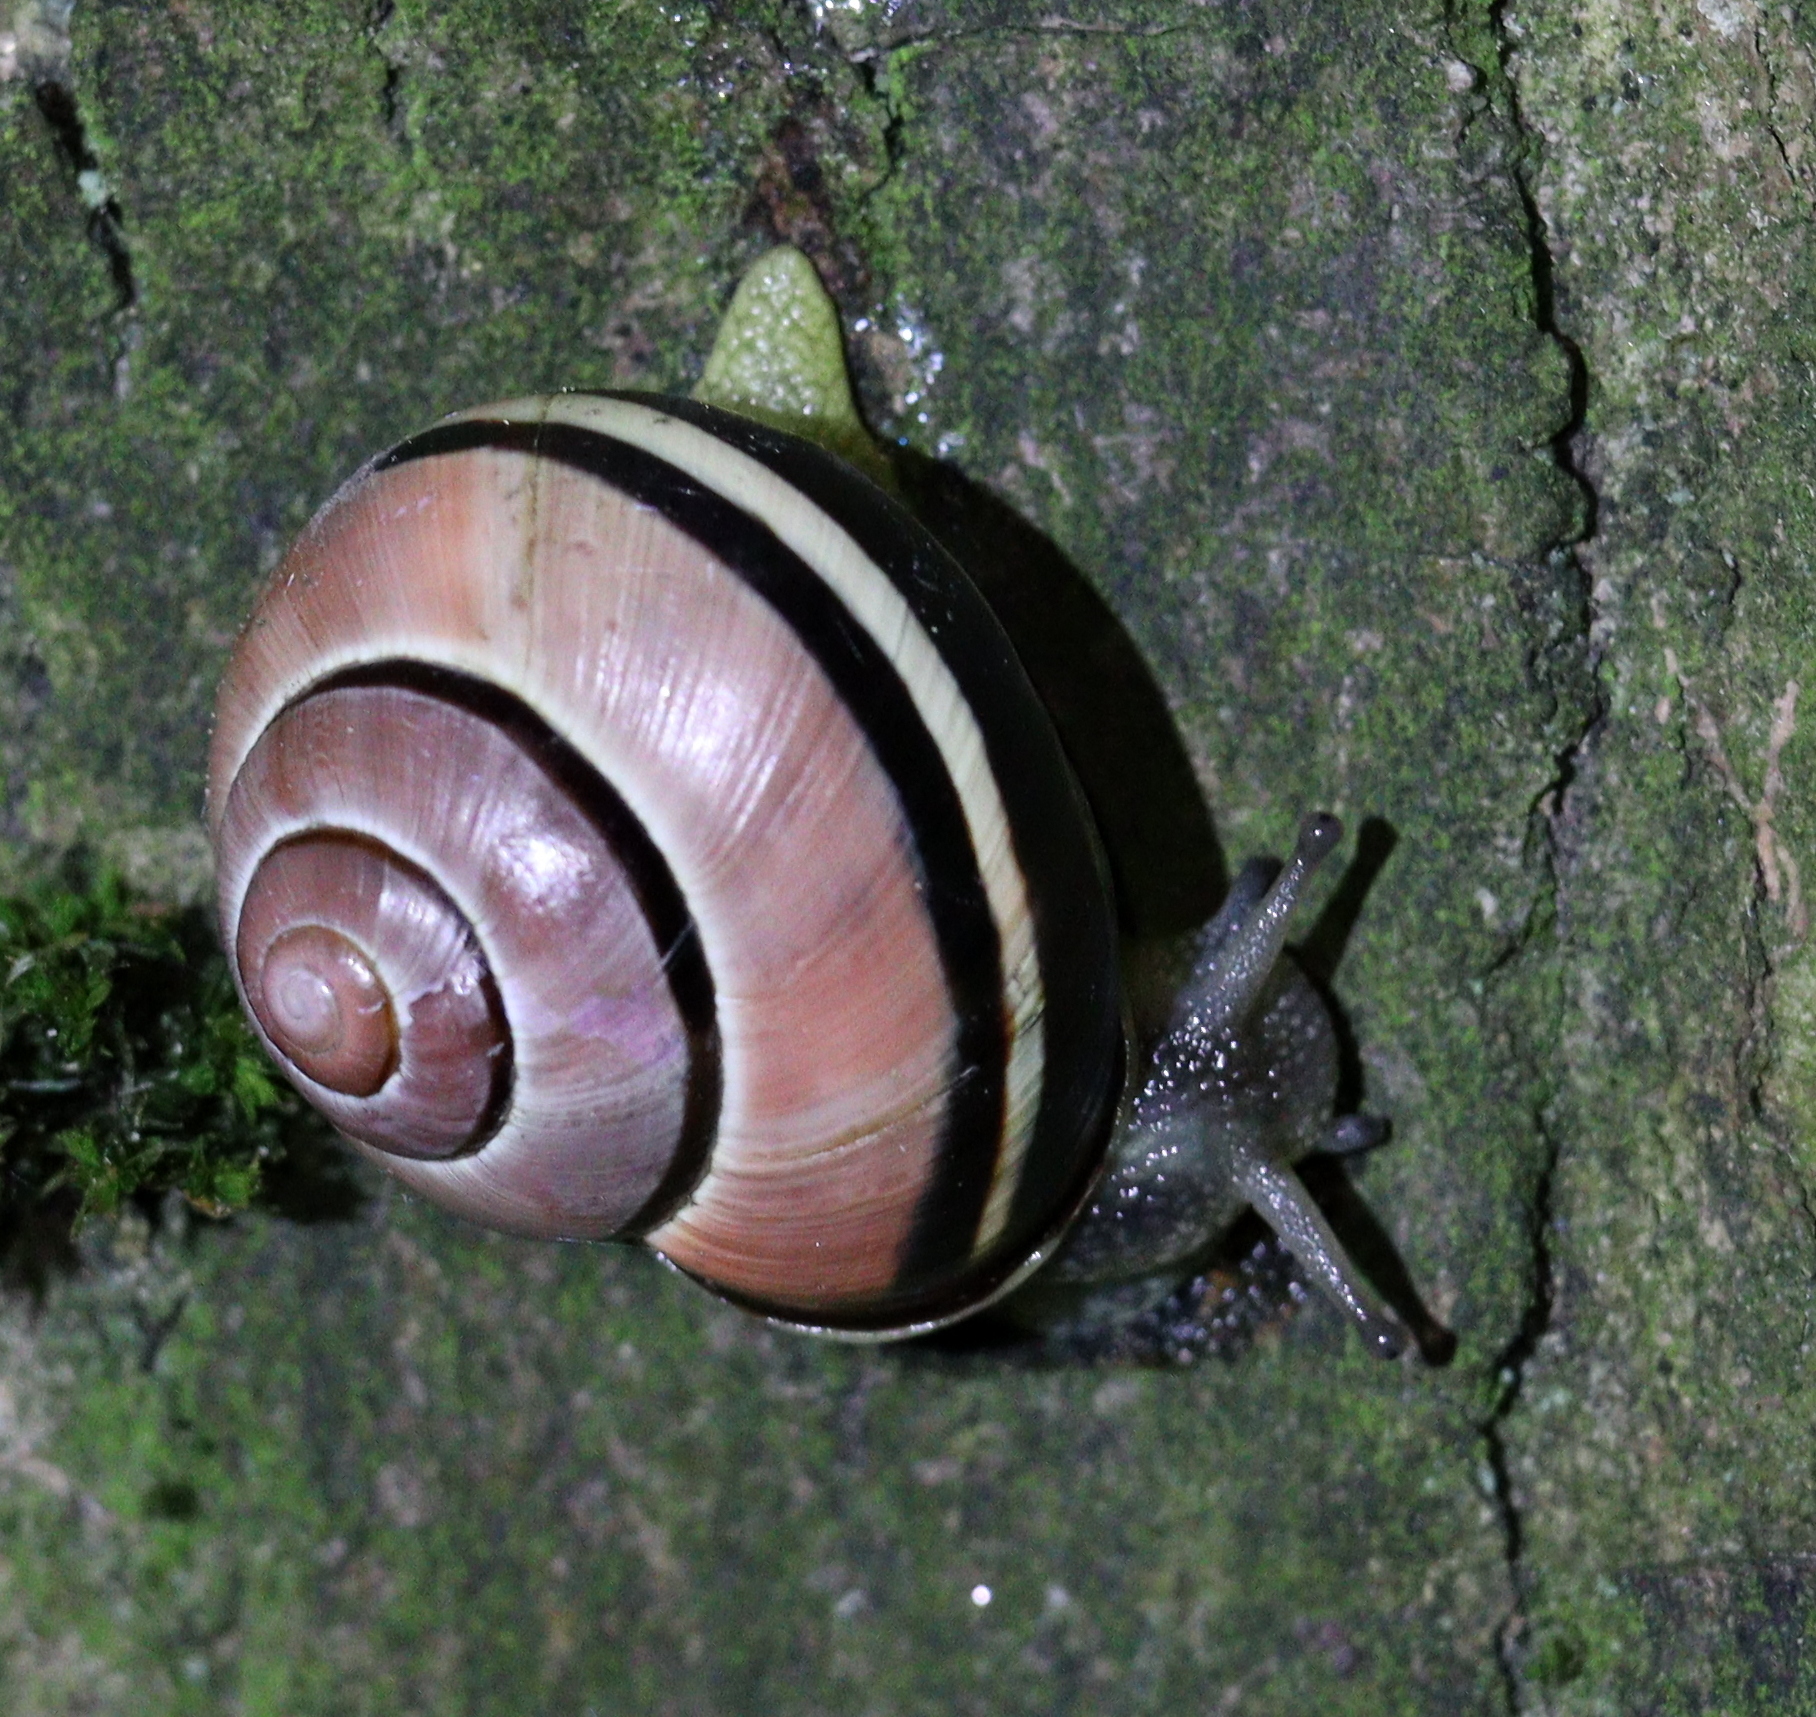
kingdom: Animalia
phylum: Mollusca
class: Gastropoda
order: Stylommatophora
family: Helicidae
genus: Cepaea
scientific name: Cepaea nemoralis
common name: Grovesnail
